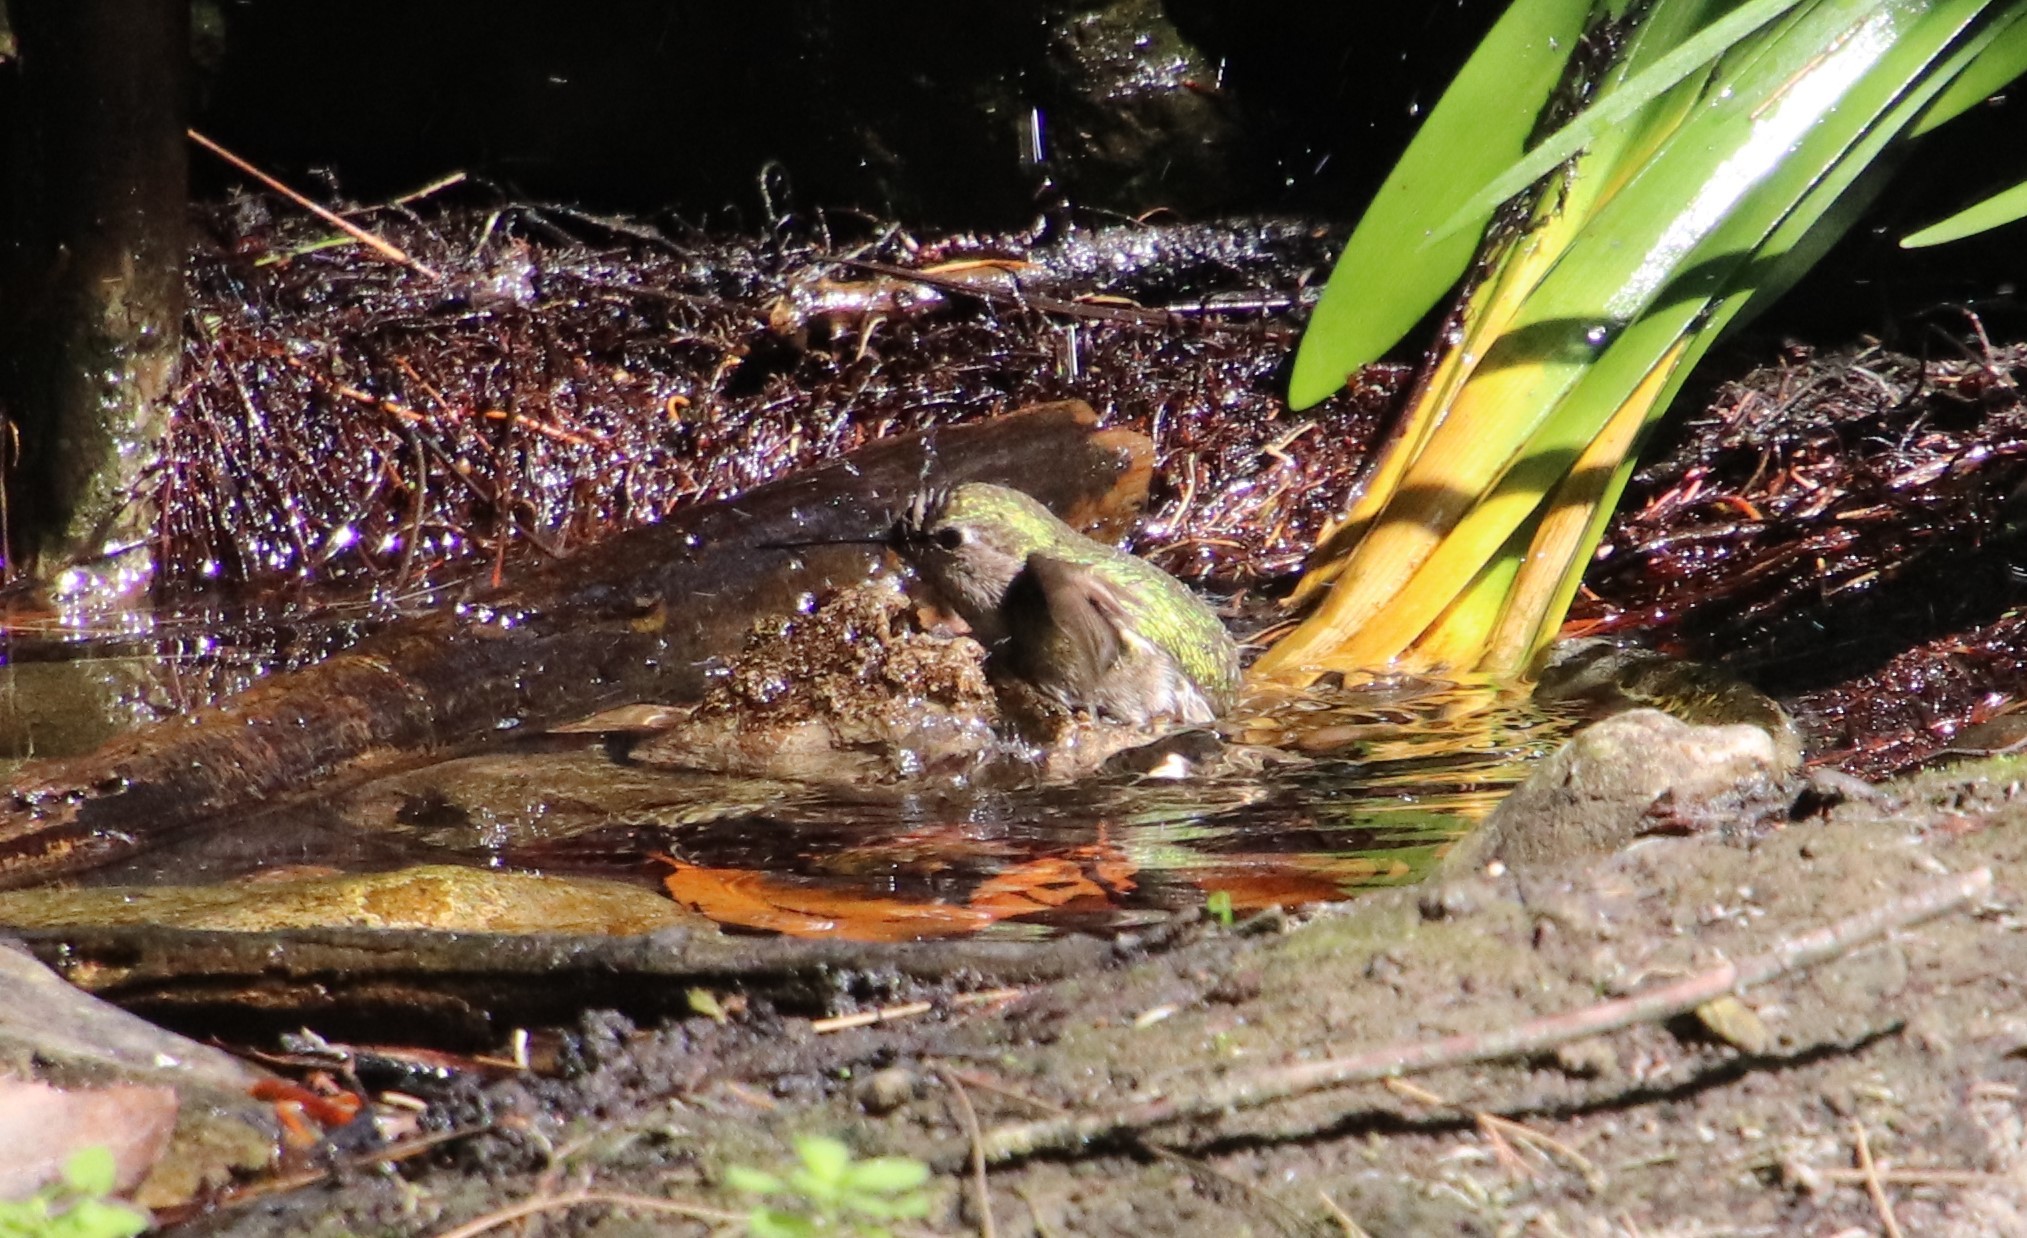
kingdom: Animalia
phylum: Chordata
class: Aves
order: Apodiformes
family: Trochilidae
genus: Calypte
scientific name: Calypte anna
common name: Anna's hummingbird
